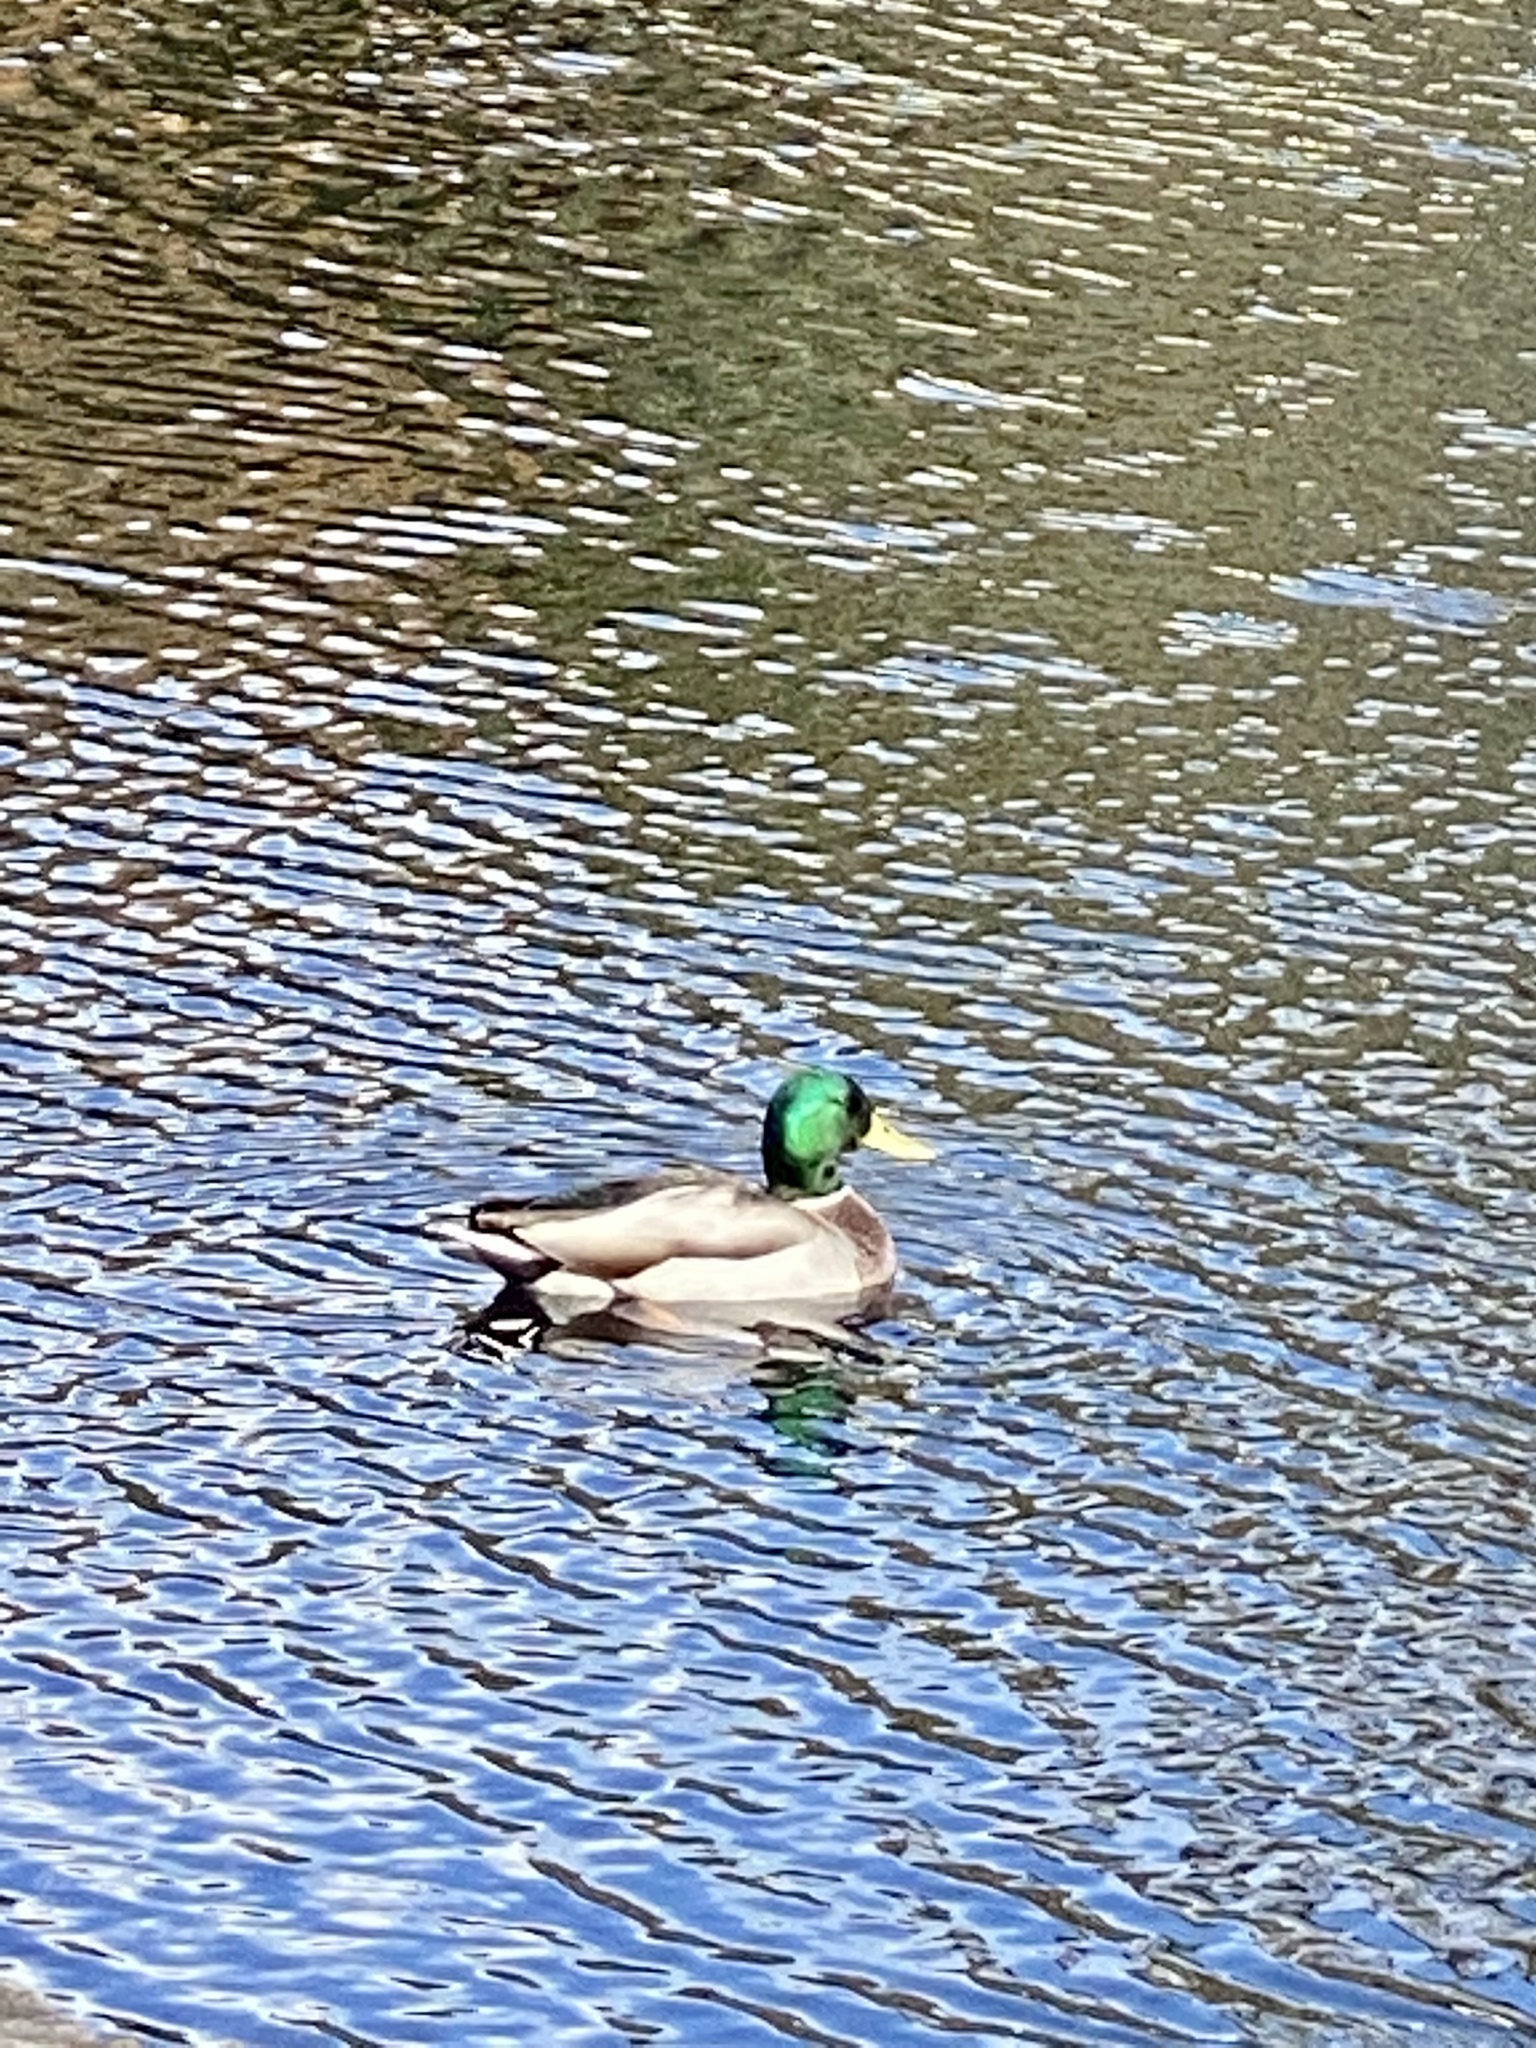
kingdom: Animalia
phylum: Chordata
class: Aves
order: Anseriformes
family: Anatidae
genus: Anas
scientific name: Anas platyrhynchos
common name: Mallard
